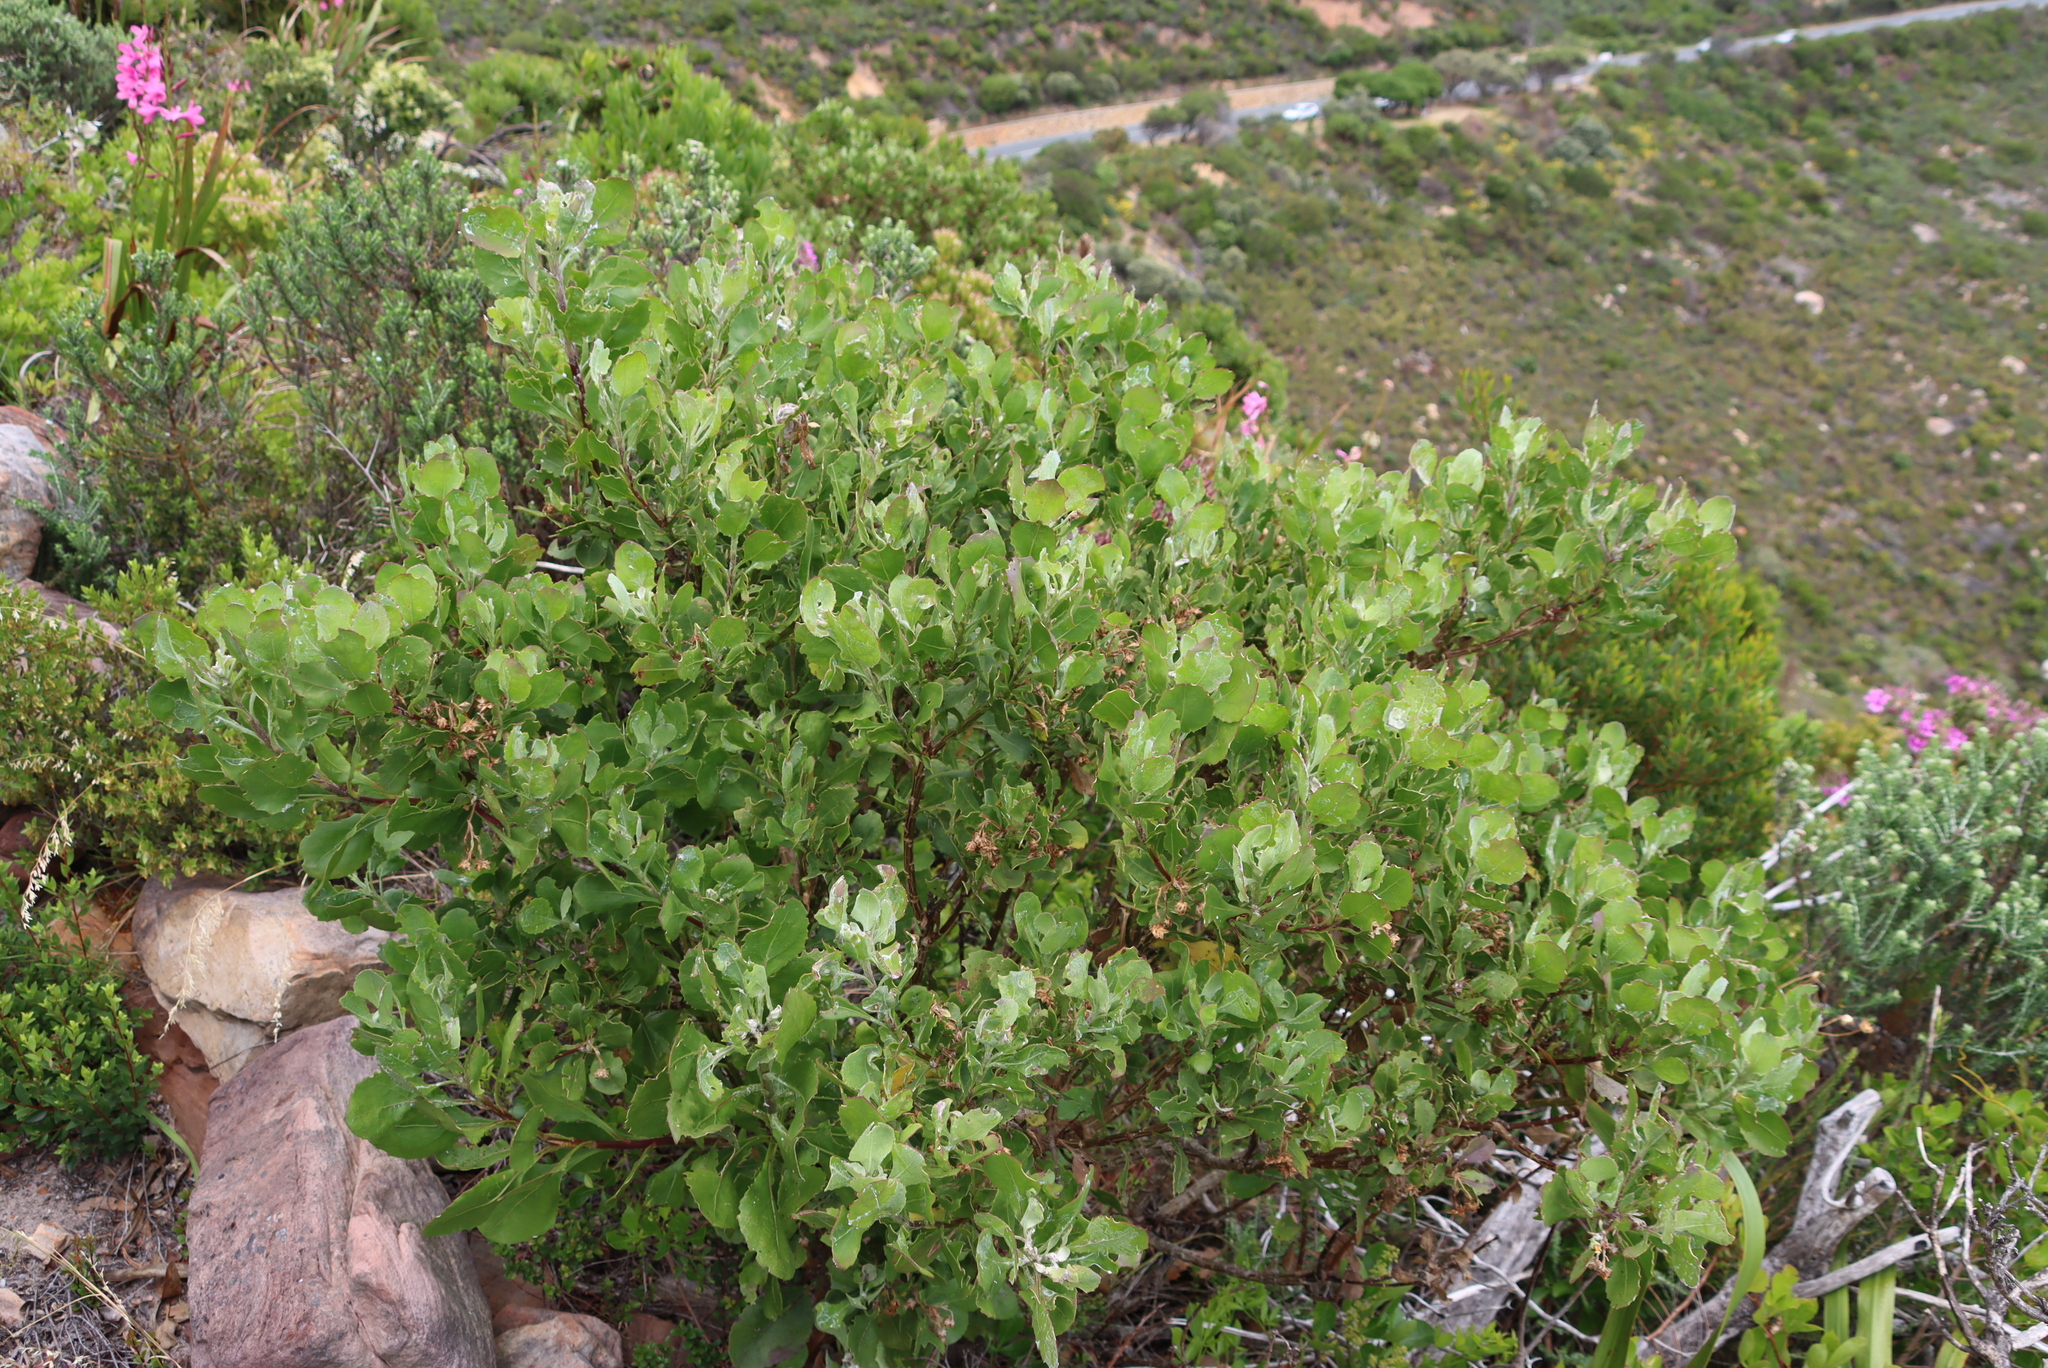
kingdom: Plantae
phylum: Tracheophyta
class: Magnoliopsida
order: Asterales
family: Asteraceae
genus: Osteospermum
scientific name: Osteospermum moniliferum
